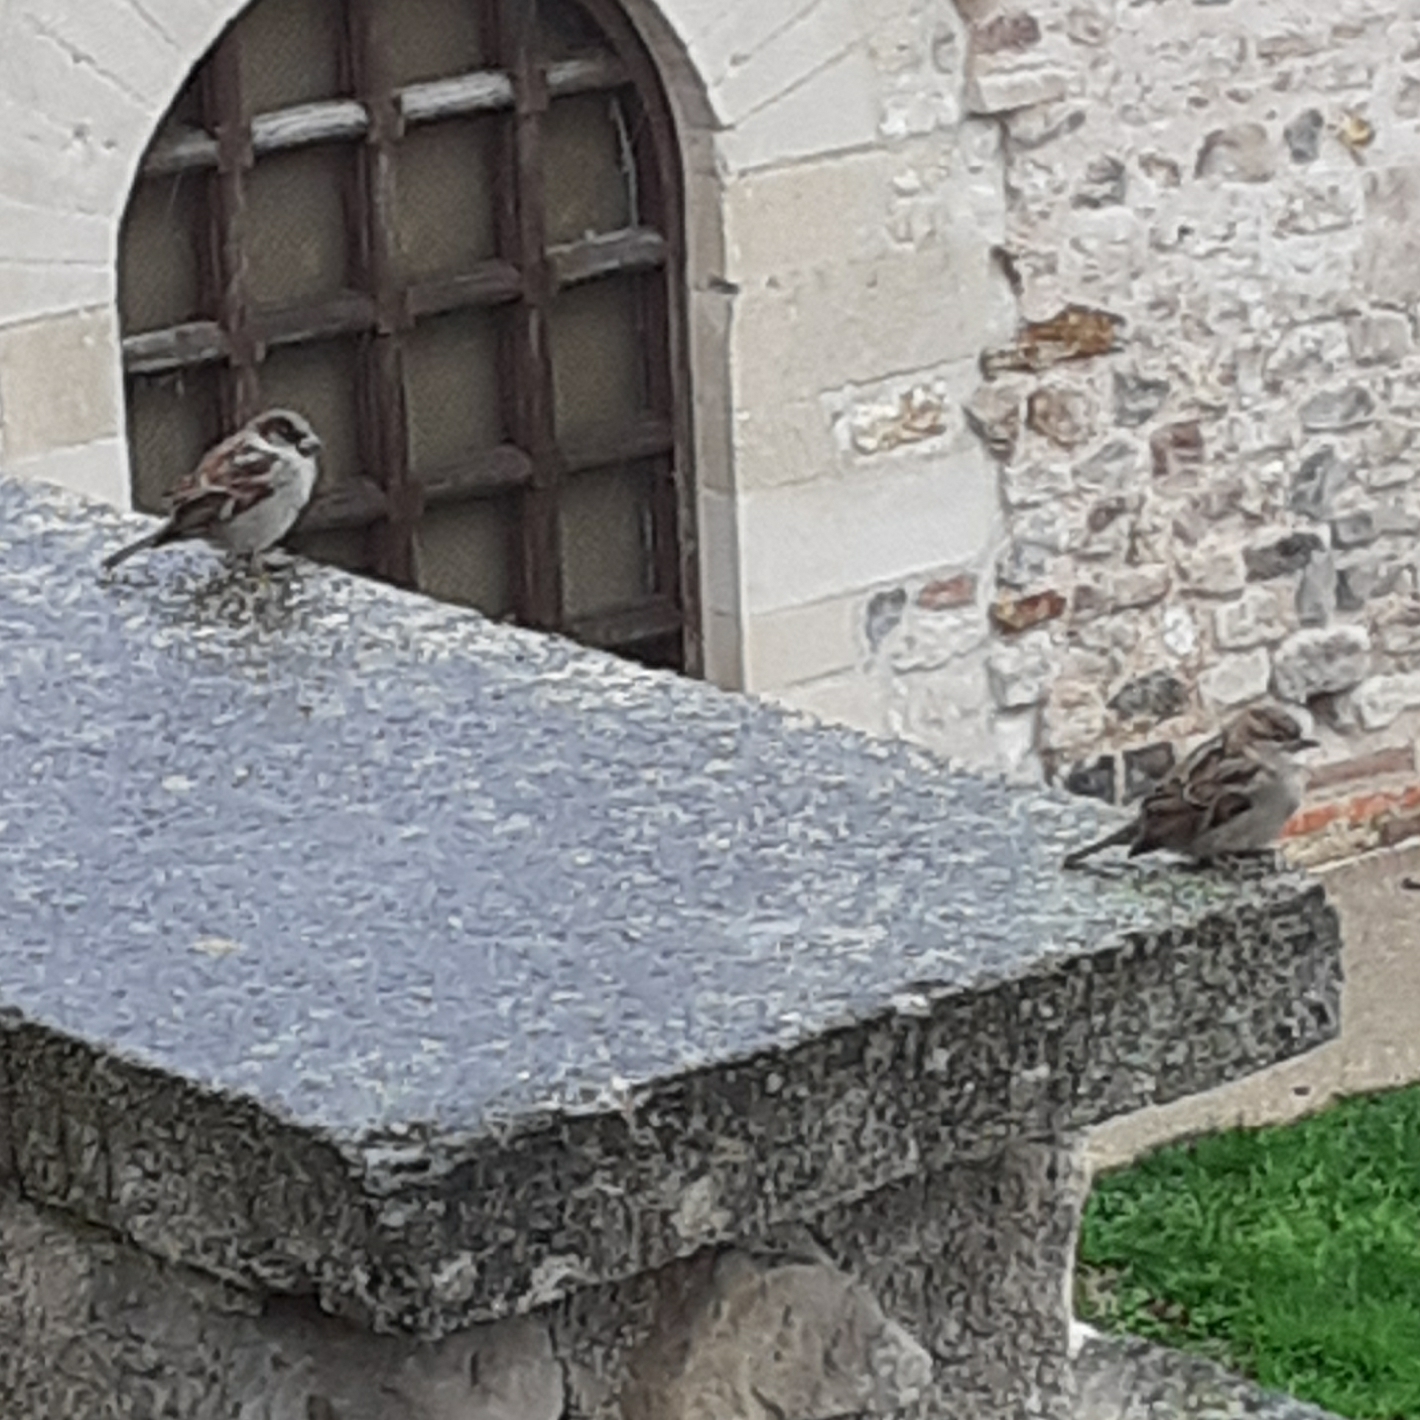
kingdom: Animalia
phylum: Chordata
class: Aves
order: Passeriformes
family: Passeridae
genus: Passer
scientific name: Passer domesticus
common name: House sparrow
